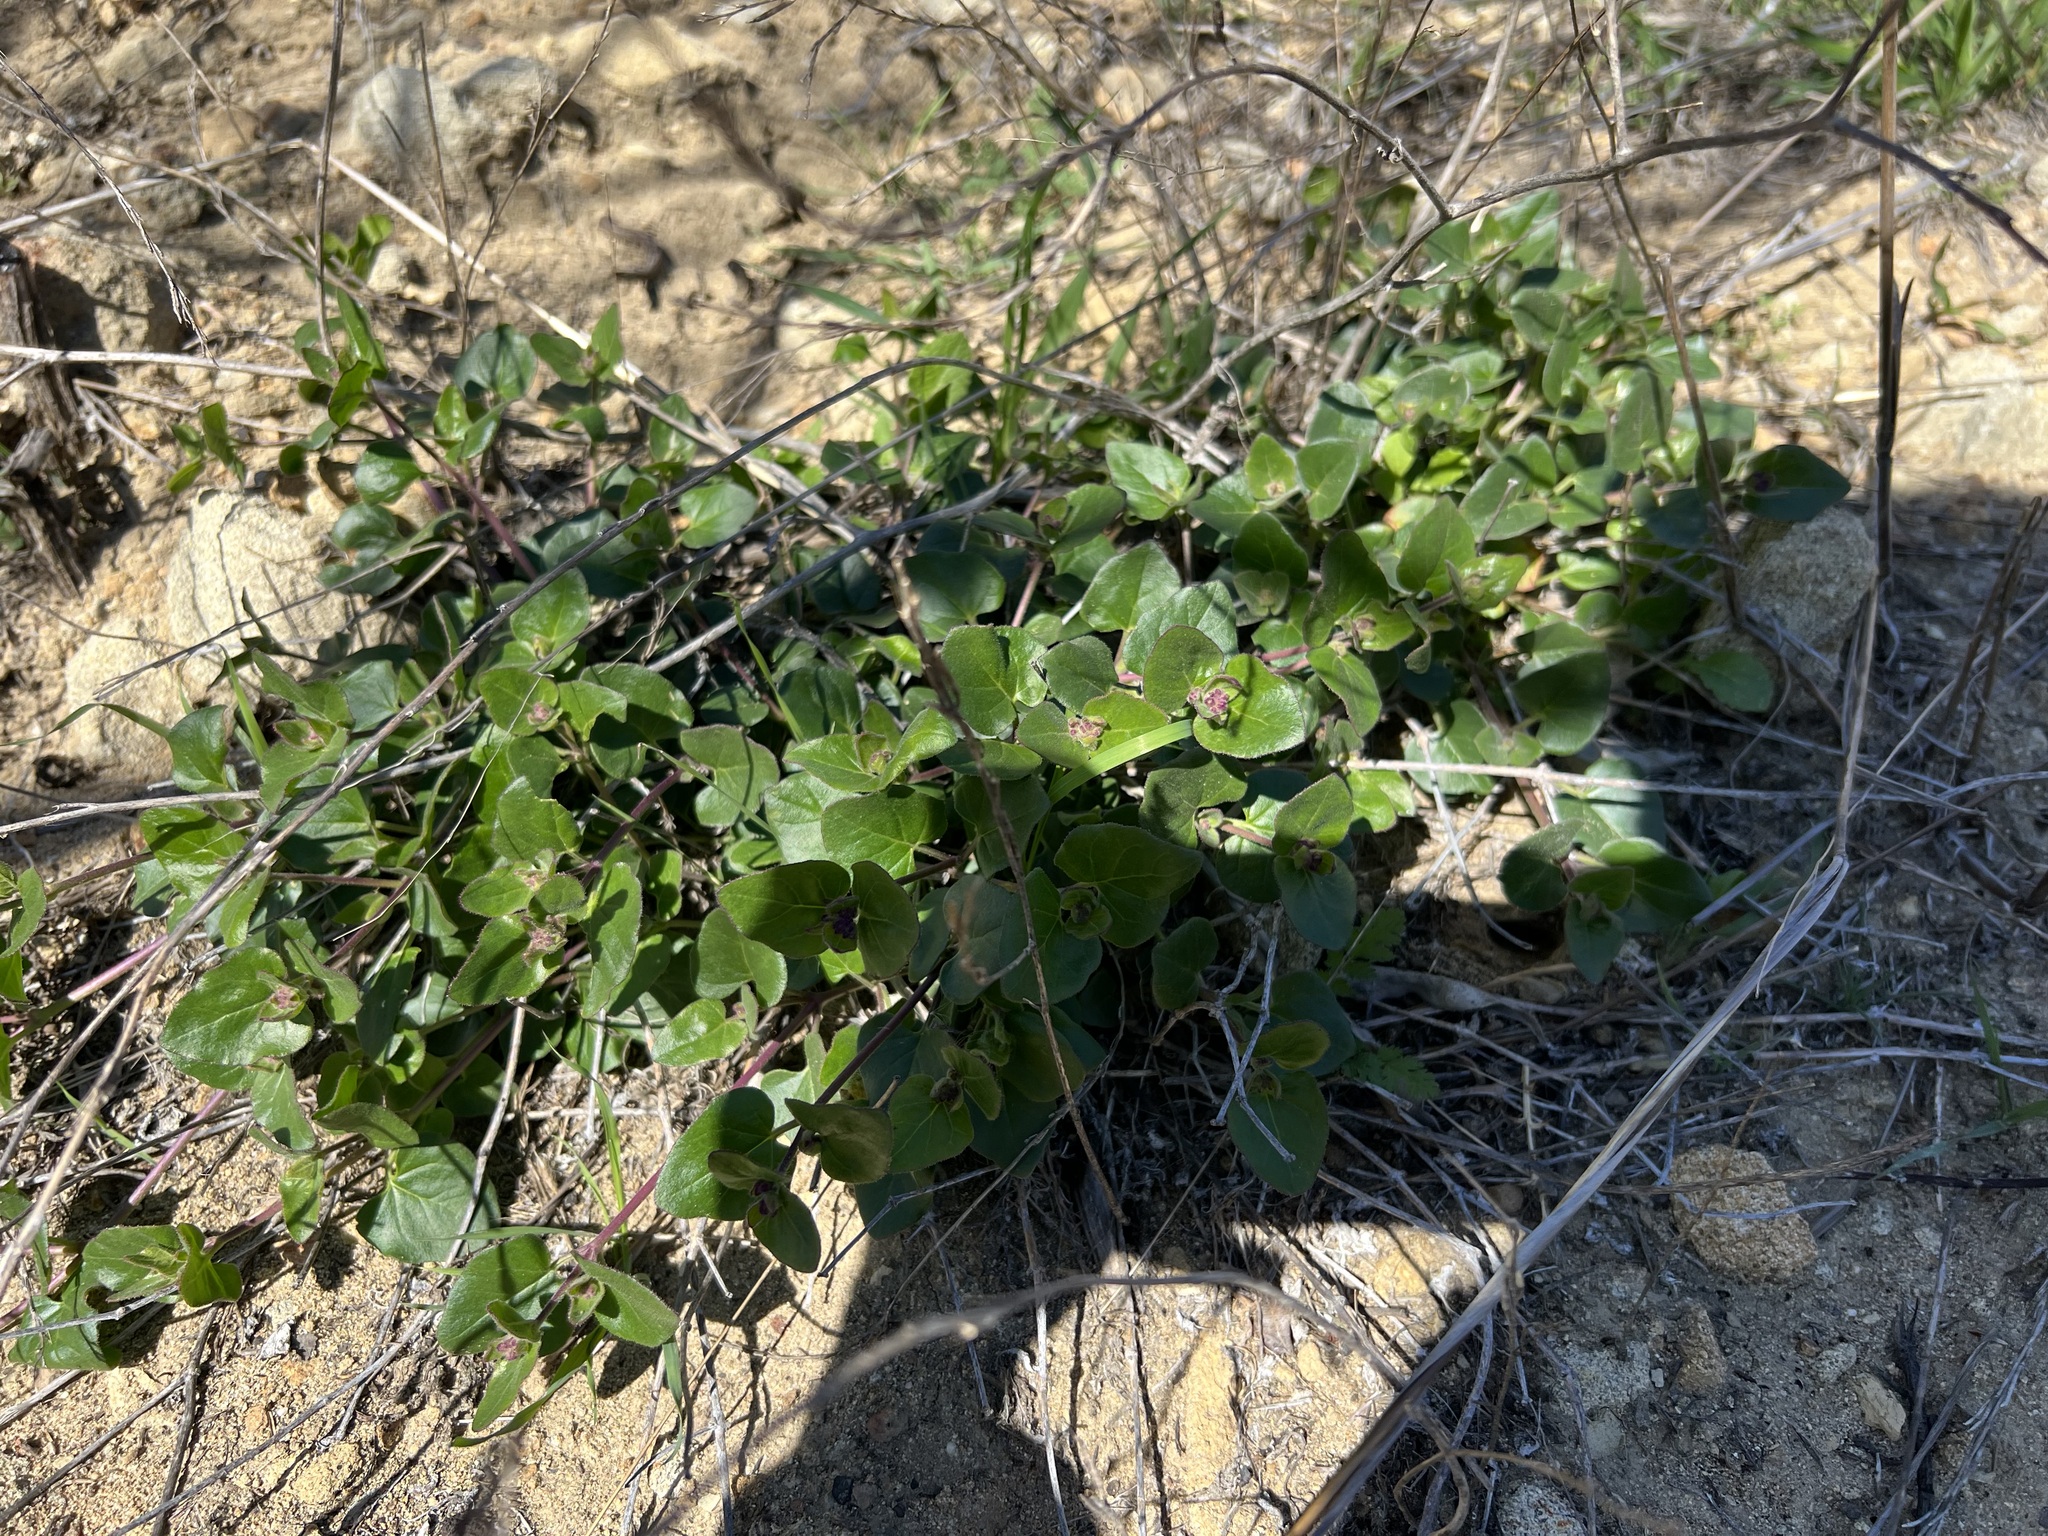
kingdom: Plantae
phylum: Tracheophyta
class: Magnoliopsida
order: Caryophyllales
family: Nyctaginaceae
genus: Mirabilis
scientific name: Mirabilis laevis
